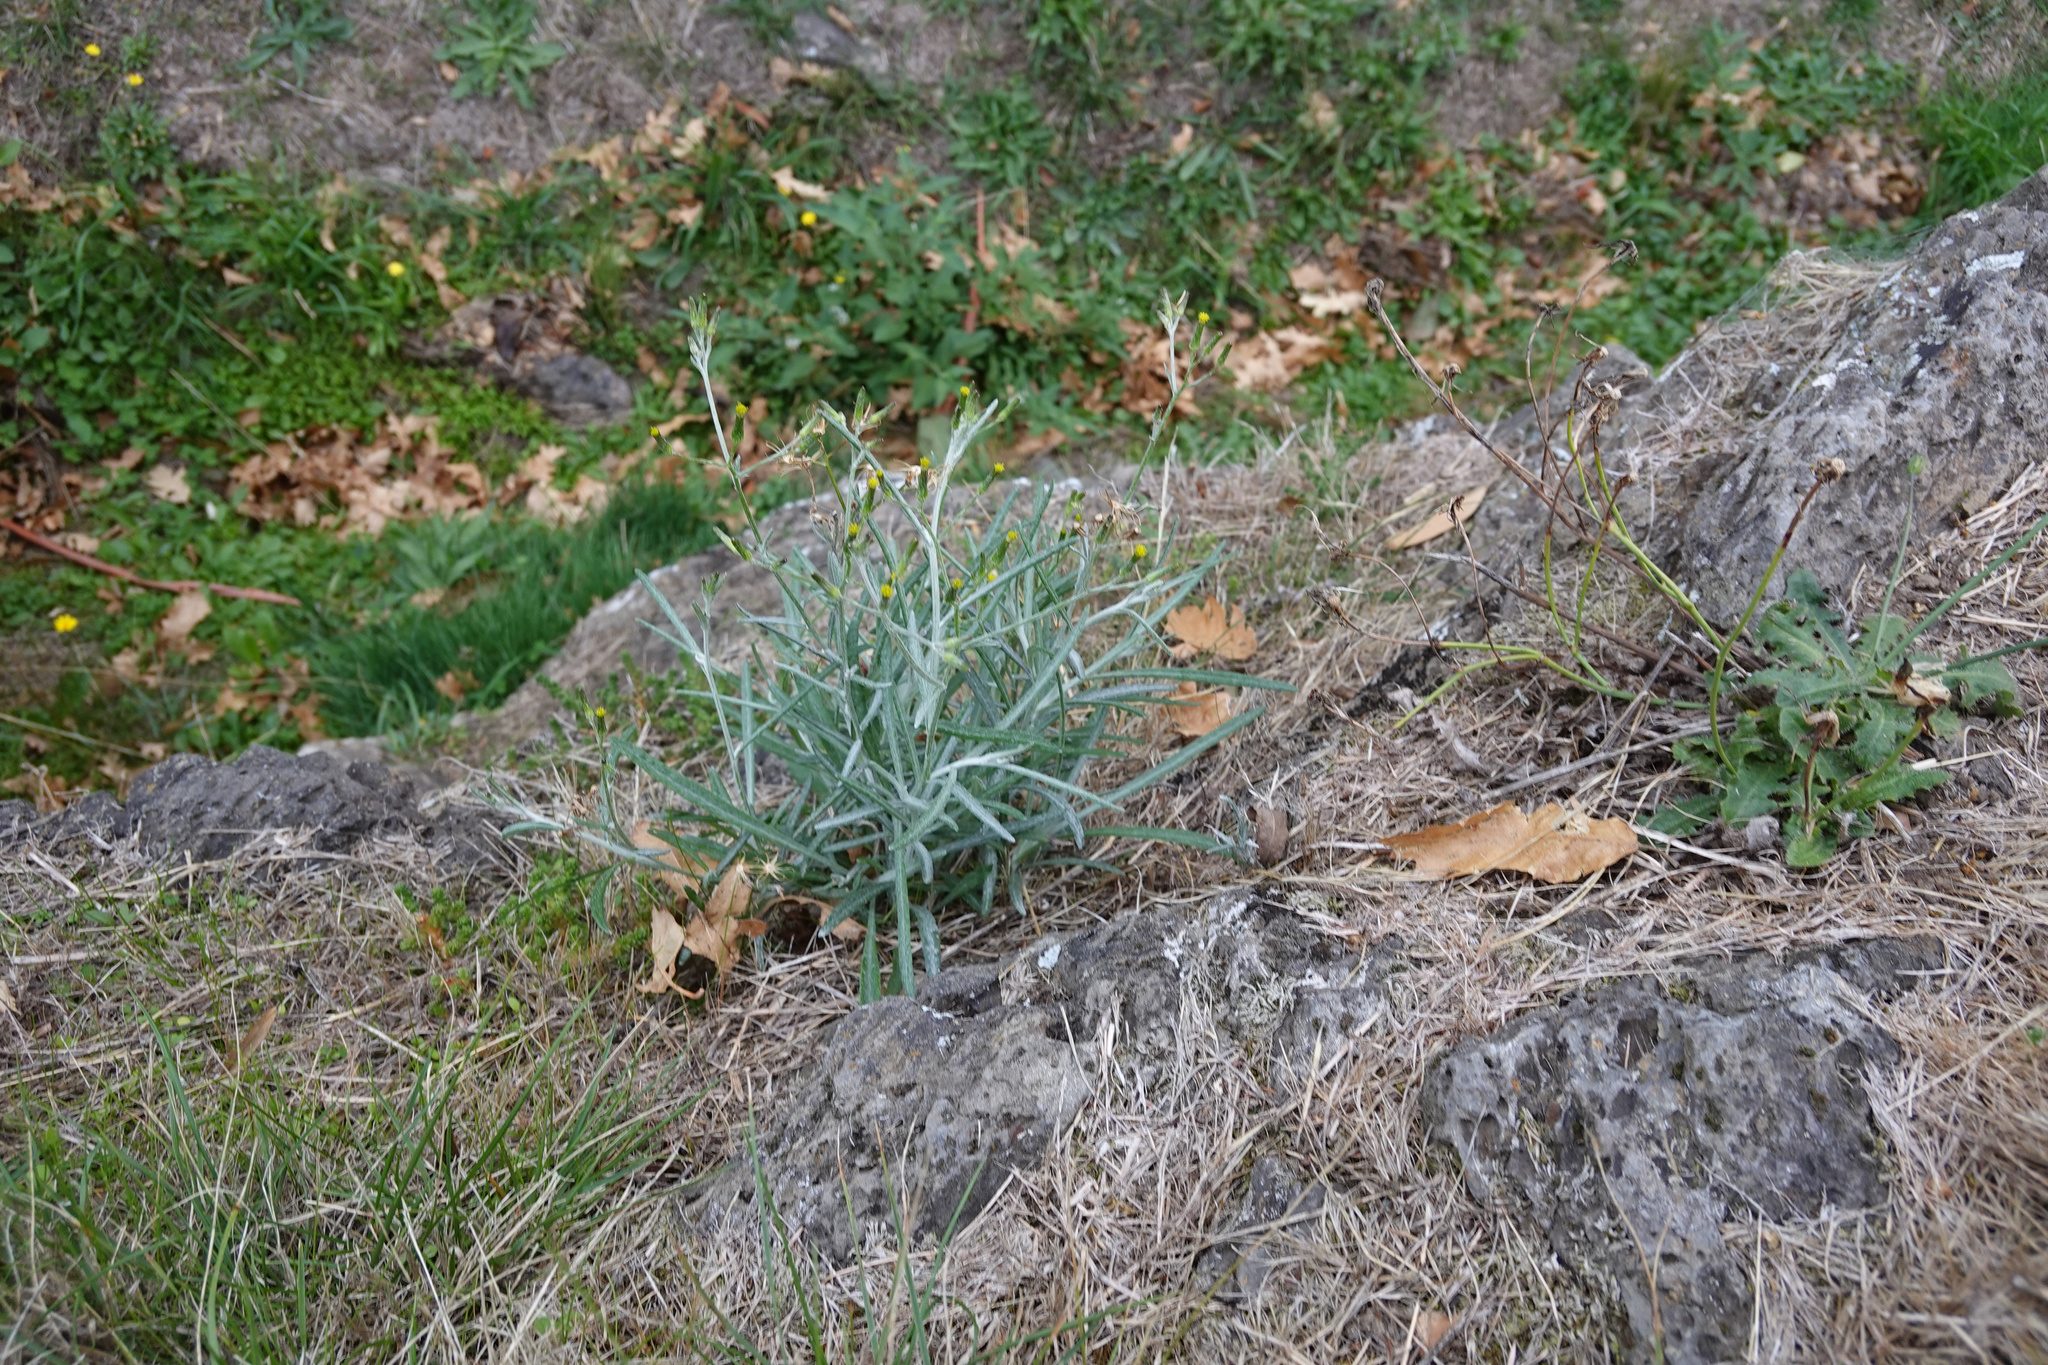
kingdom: Plantae
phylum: Tracheophyta
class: Magnoliopsida
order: Asterales
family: Asteraceae
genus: Senecio
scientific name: Senecio quadridentatus
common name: Cotton fireweed
